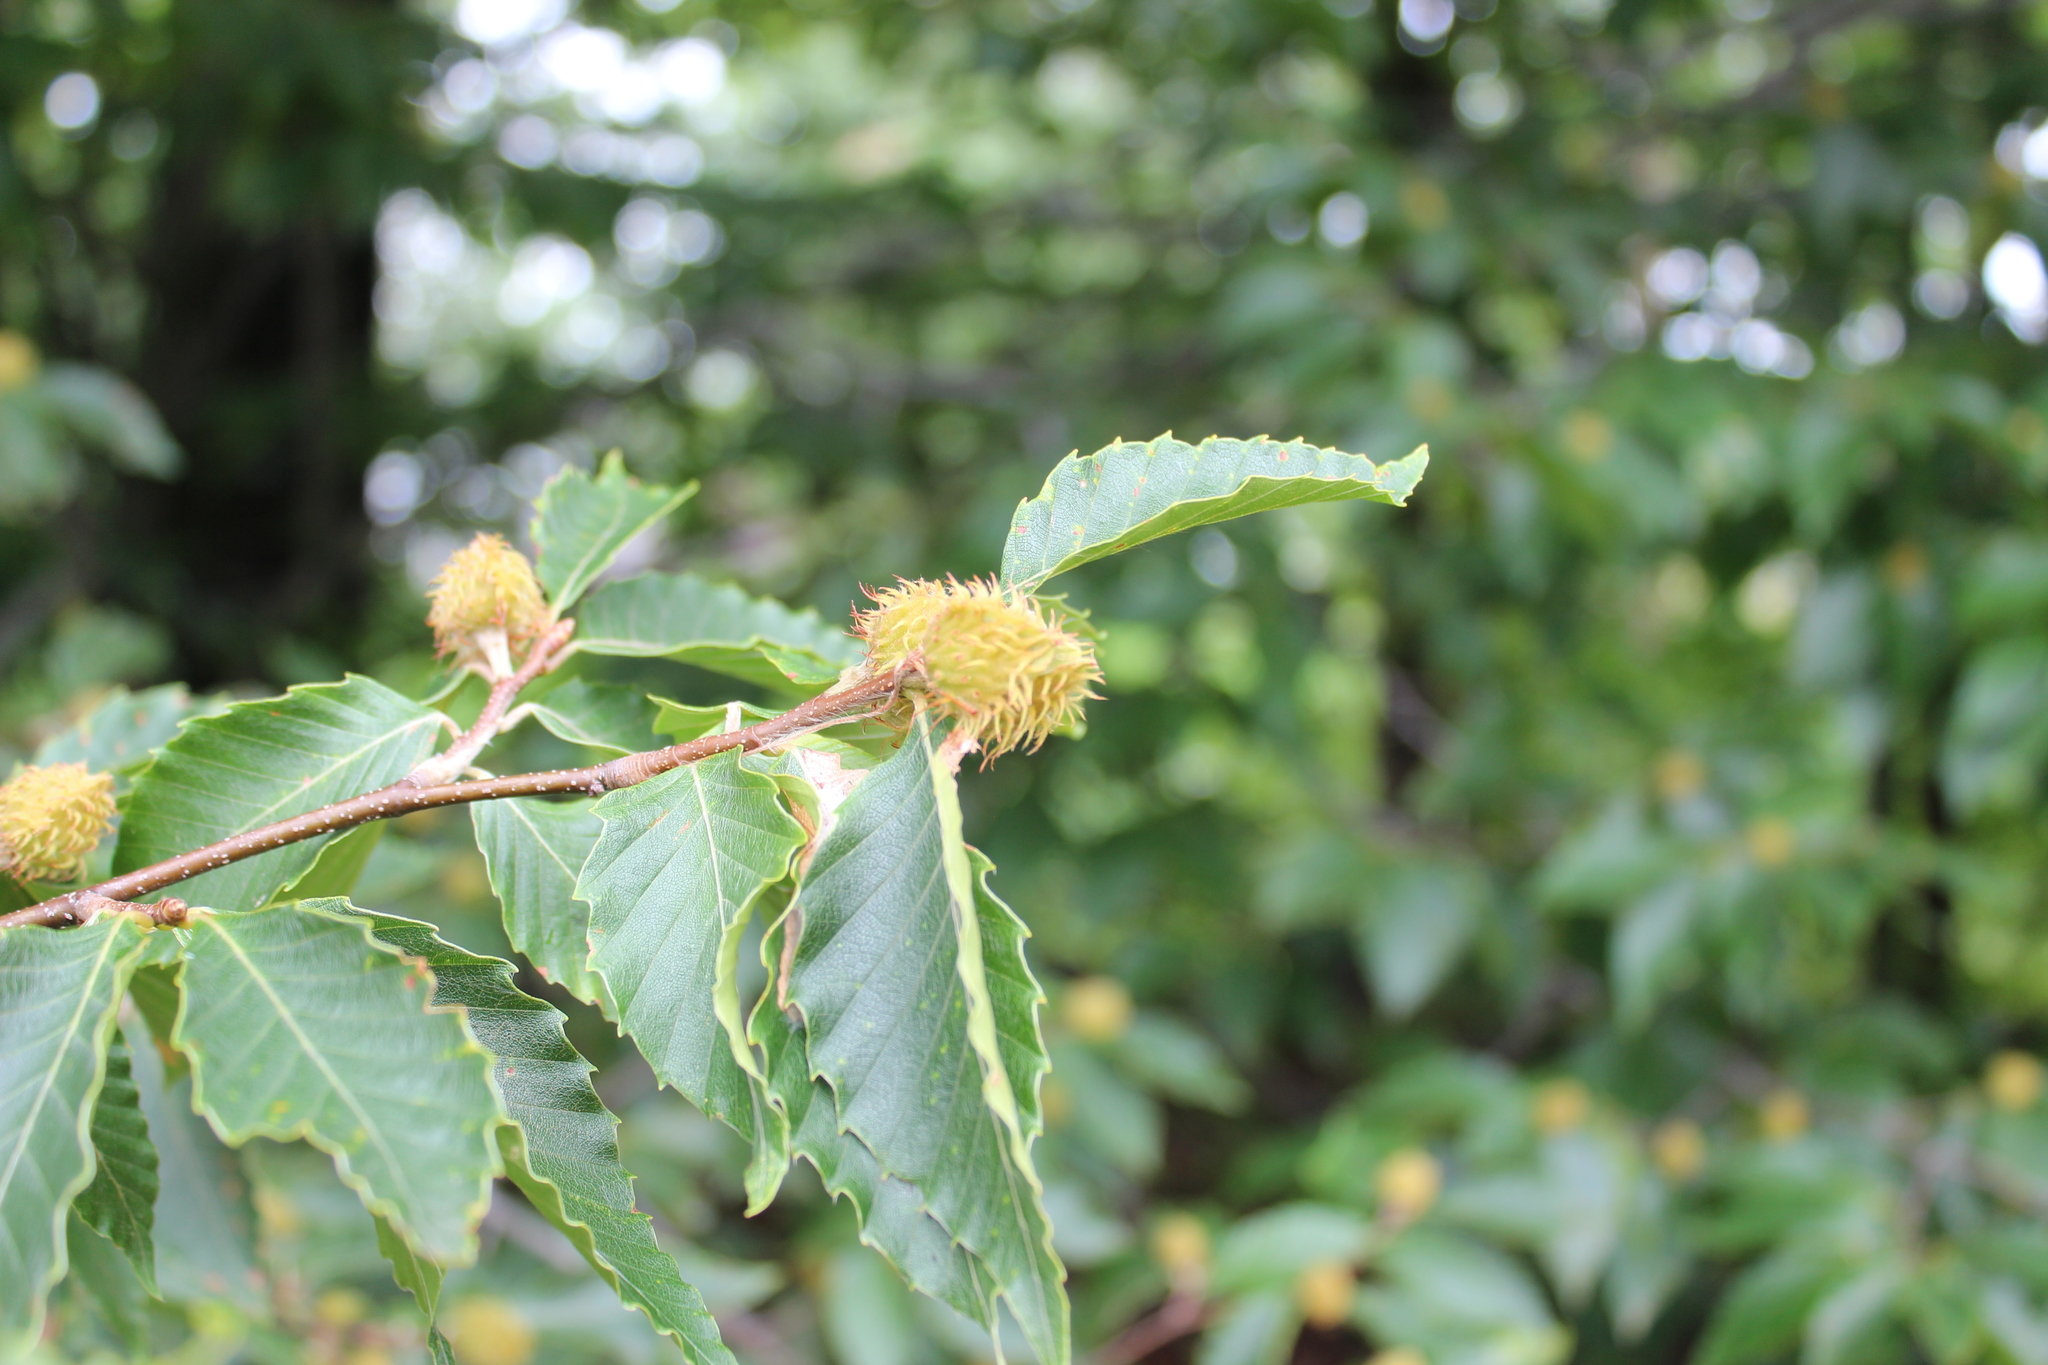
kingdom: Plantae
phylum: Tracheophyta
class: Magnoliopsida
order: Fagales
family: Fagaceae
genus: Fagus
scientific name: Fagus grandifolia
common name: American beech
